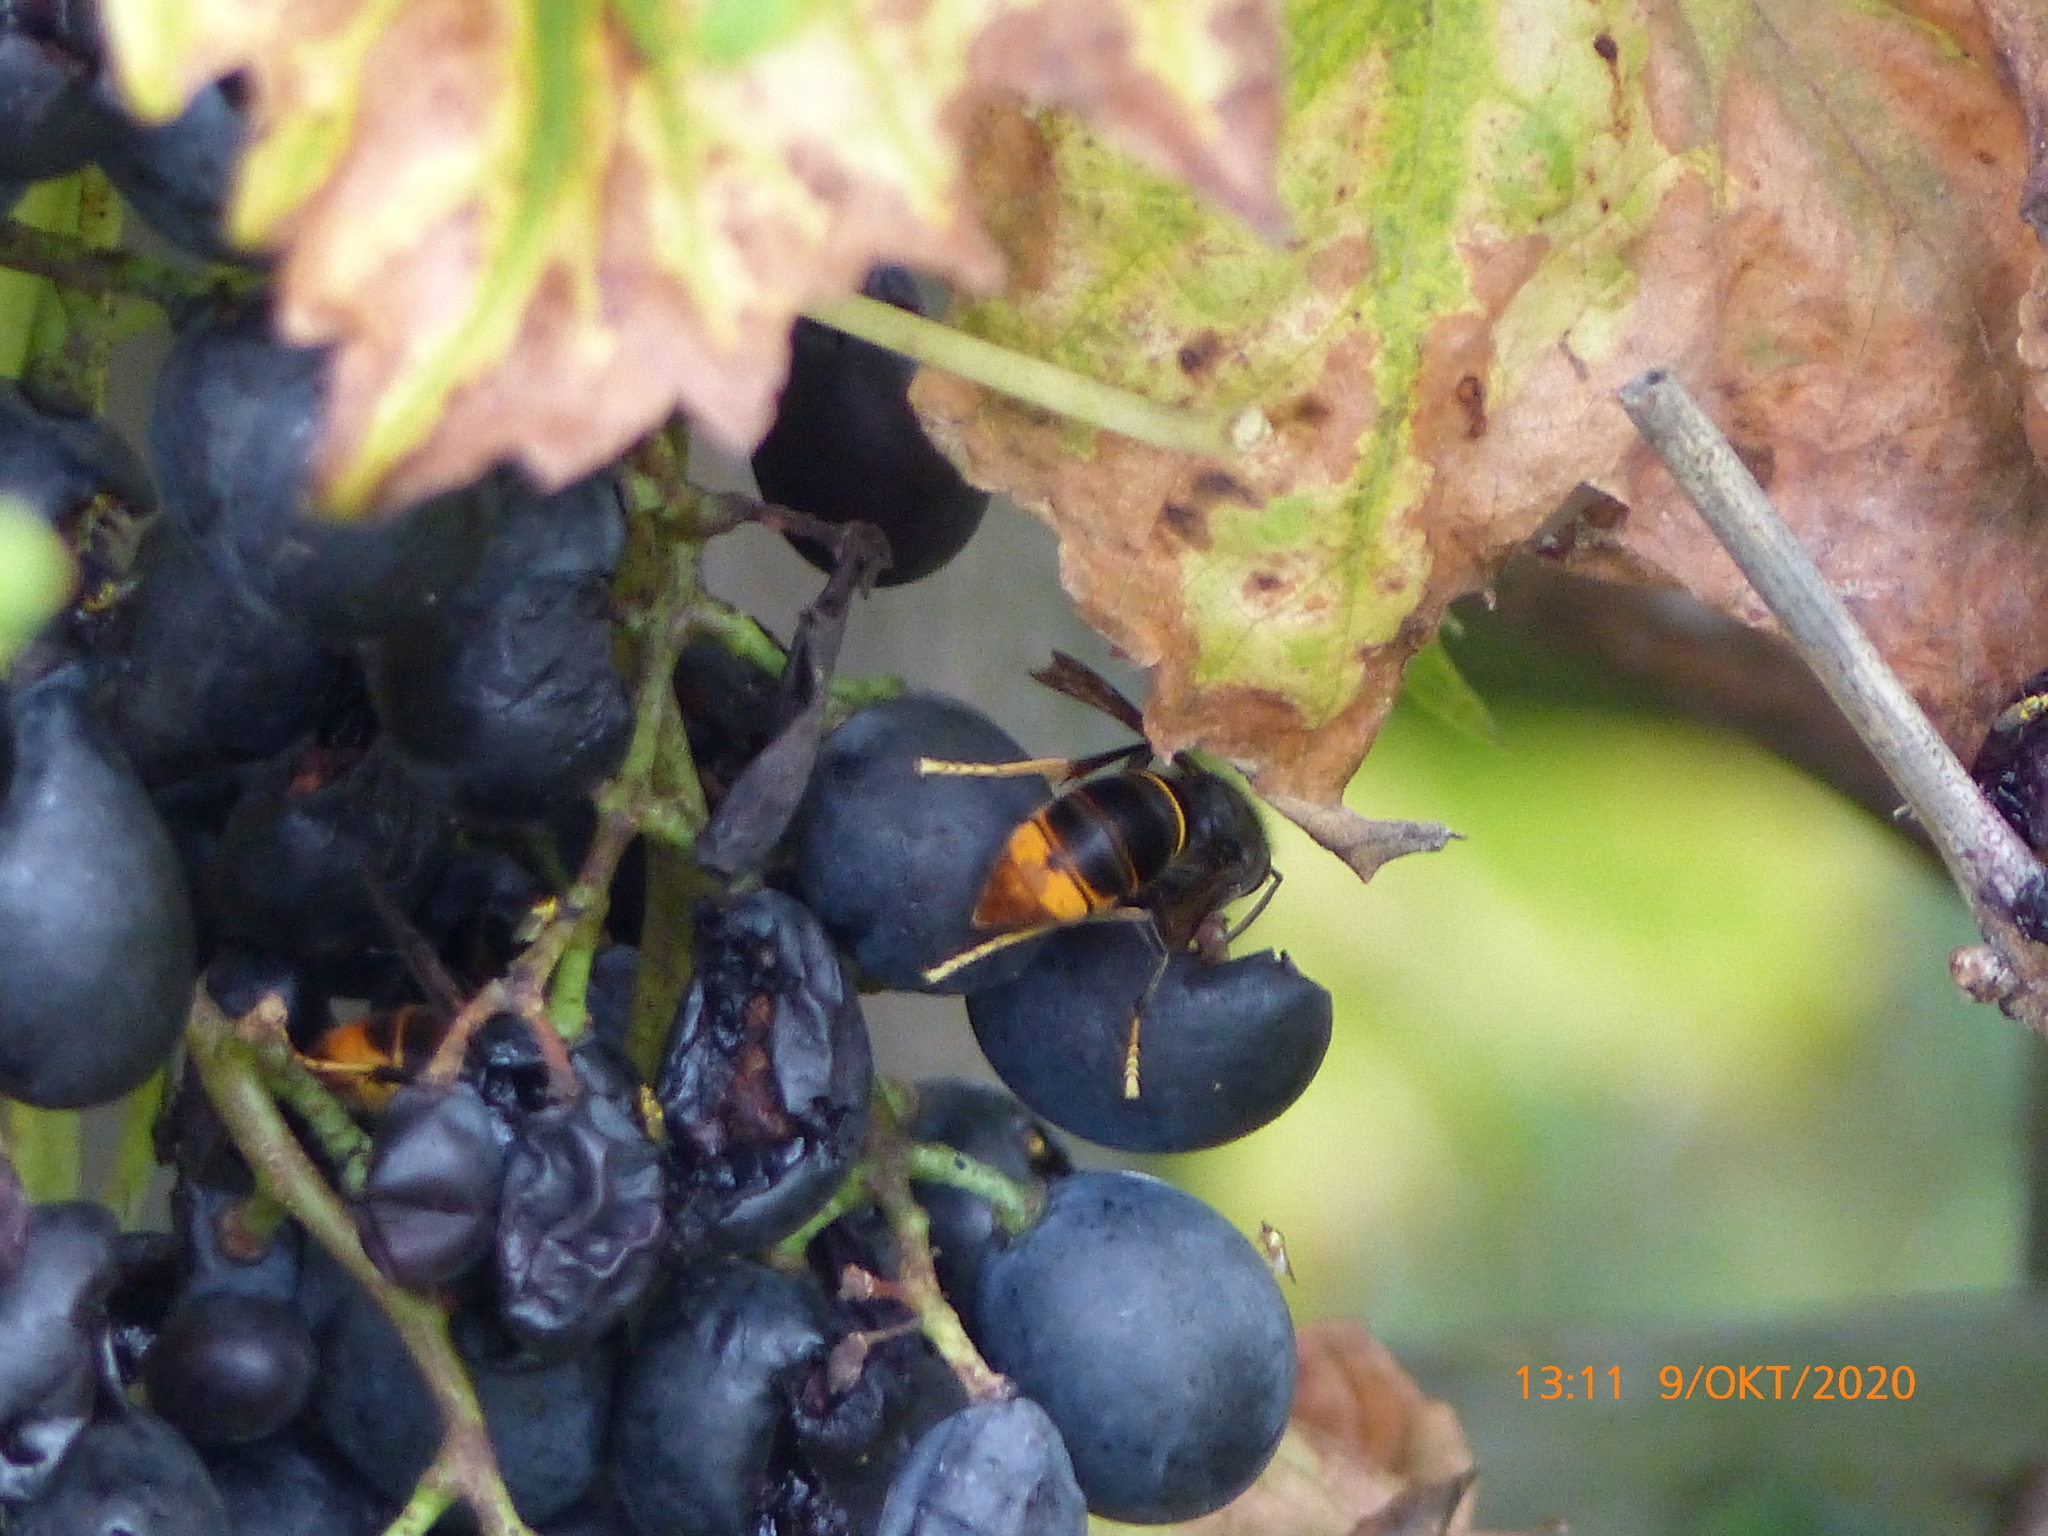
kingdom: Animalia
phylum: Arthropoda
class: Insecta
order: Hymenoptera
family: Vespidae
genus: Vespa
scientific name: Vespa velutina
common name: Asian hornet
